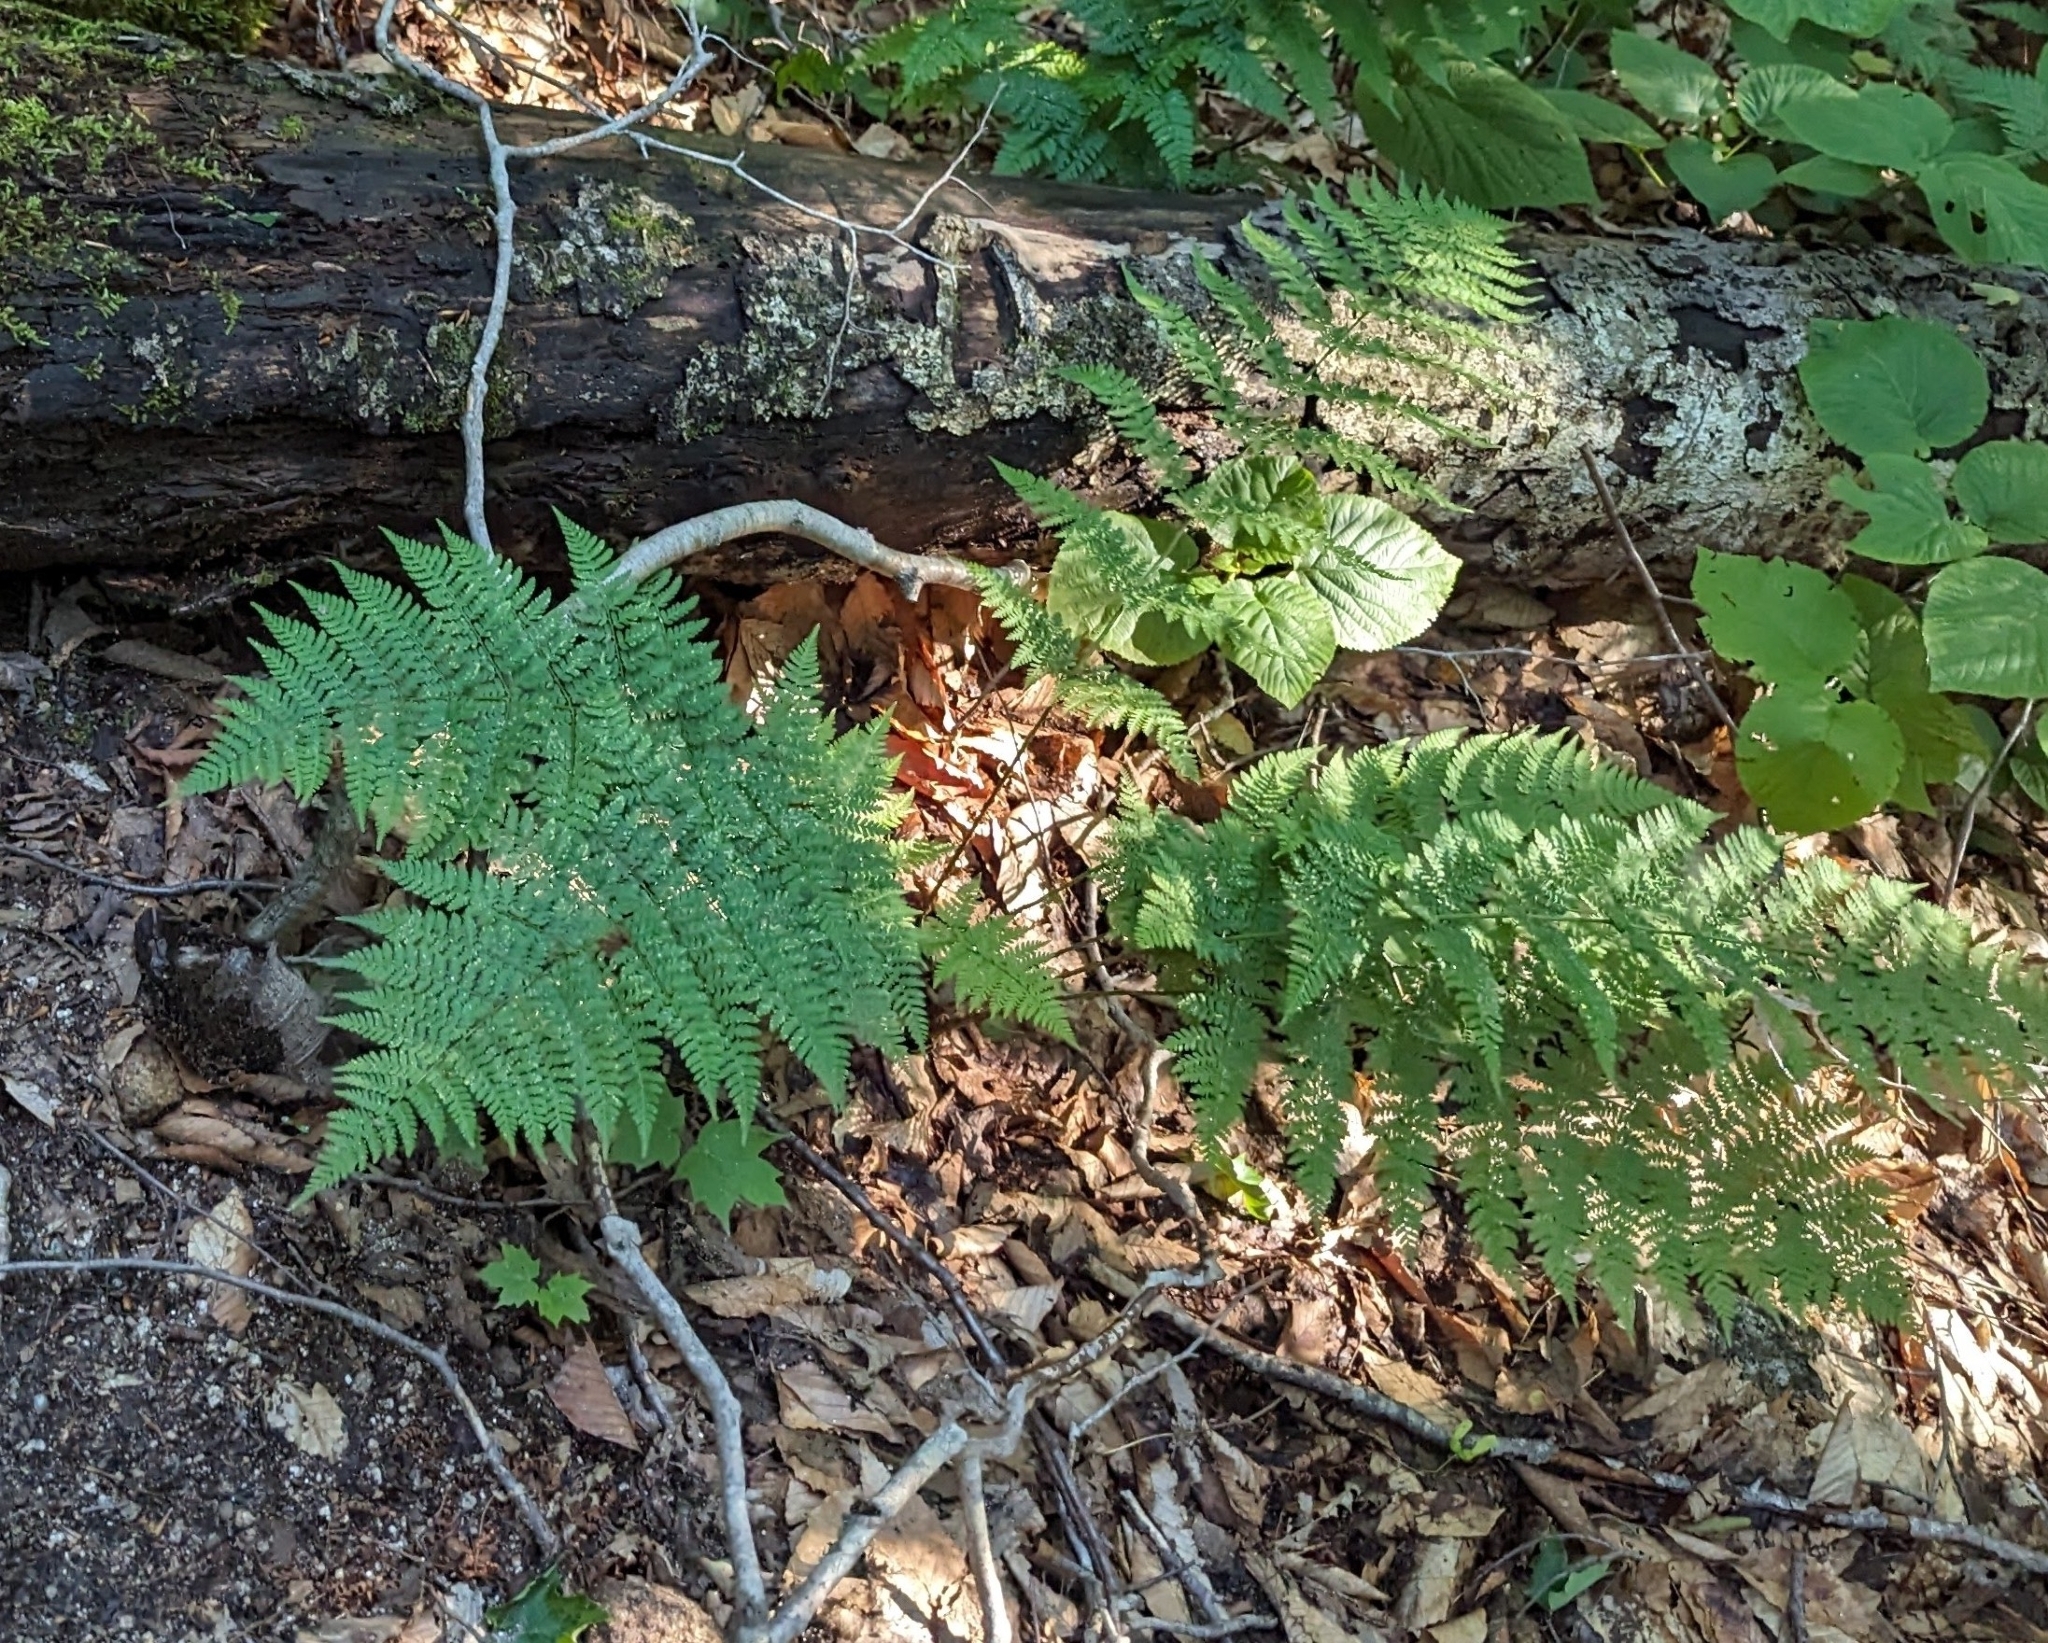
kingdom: Plantae
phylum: Tracheophyta
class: Polypodiopsida
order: Polypodiales
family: Dryopteridaceae
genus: Dryopteris
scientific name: Dryopteris intermedia
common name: Evergreen wood fern
